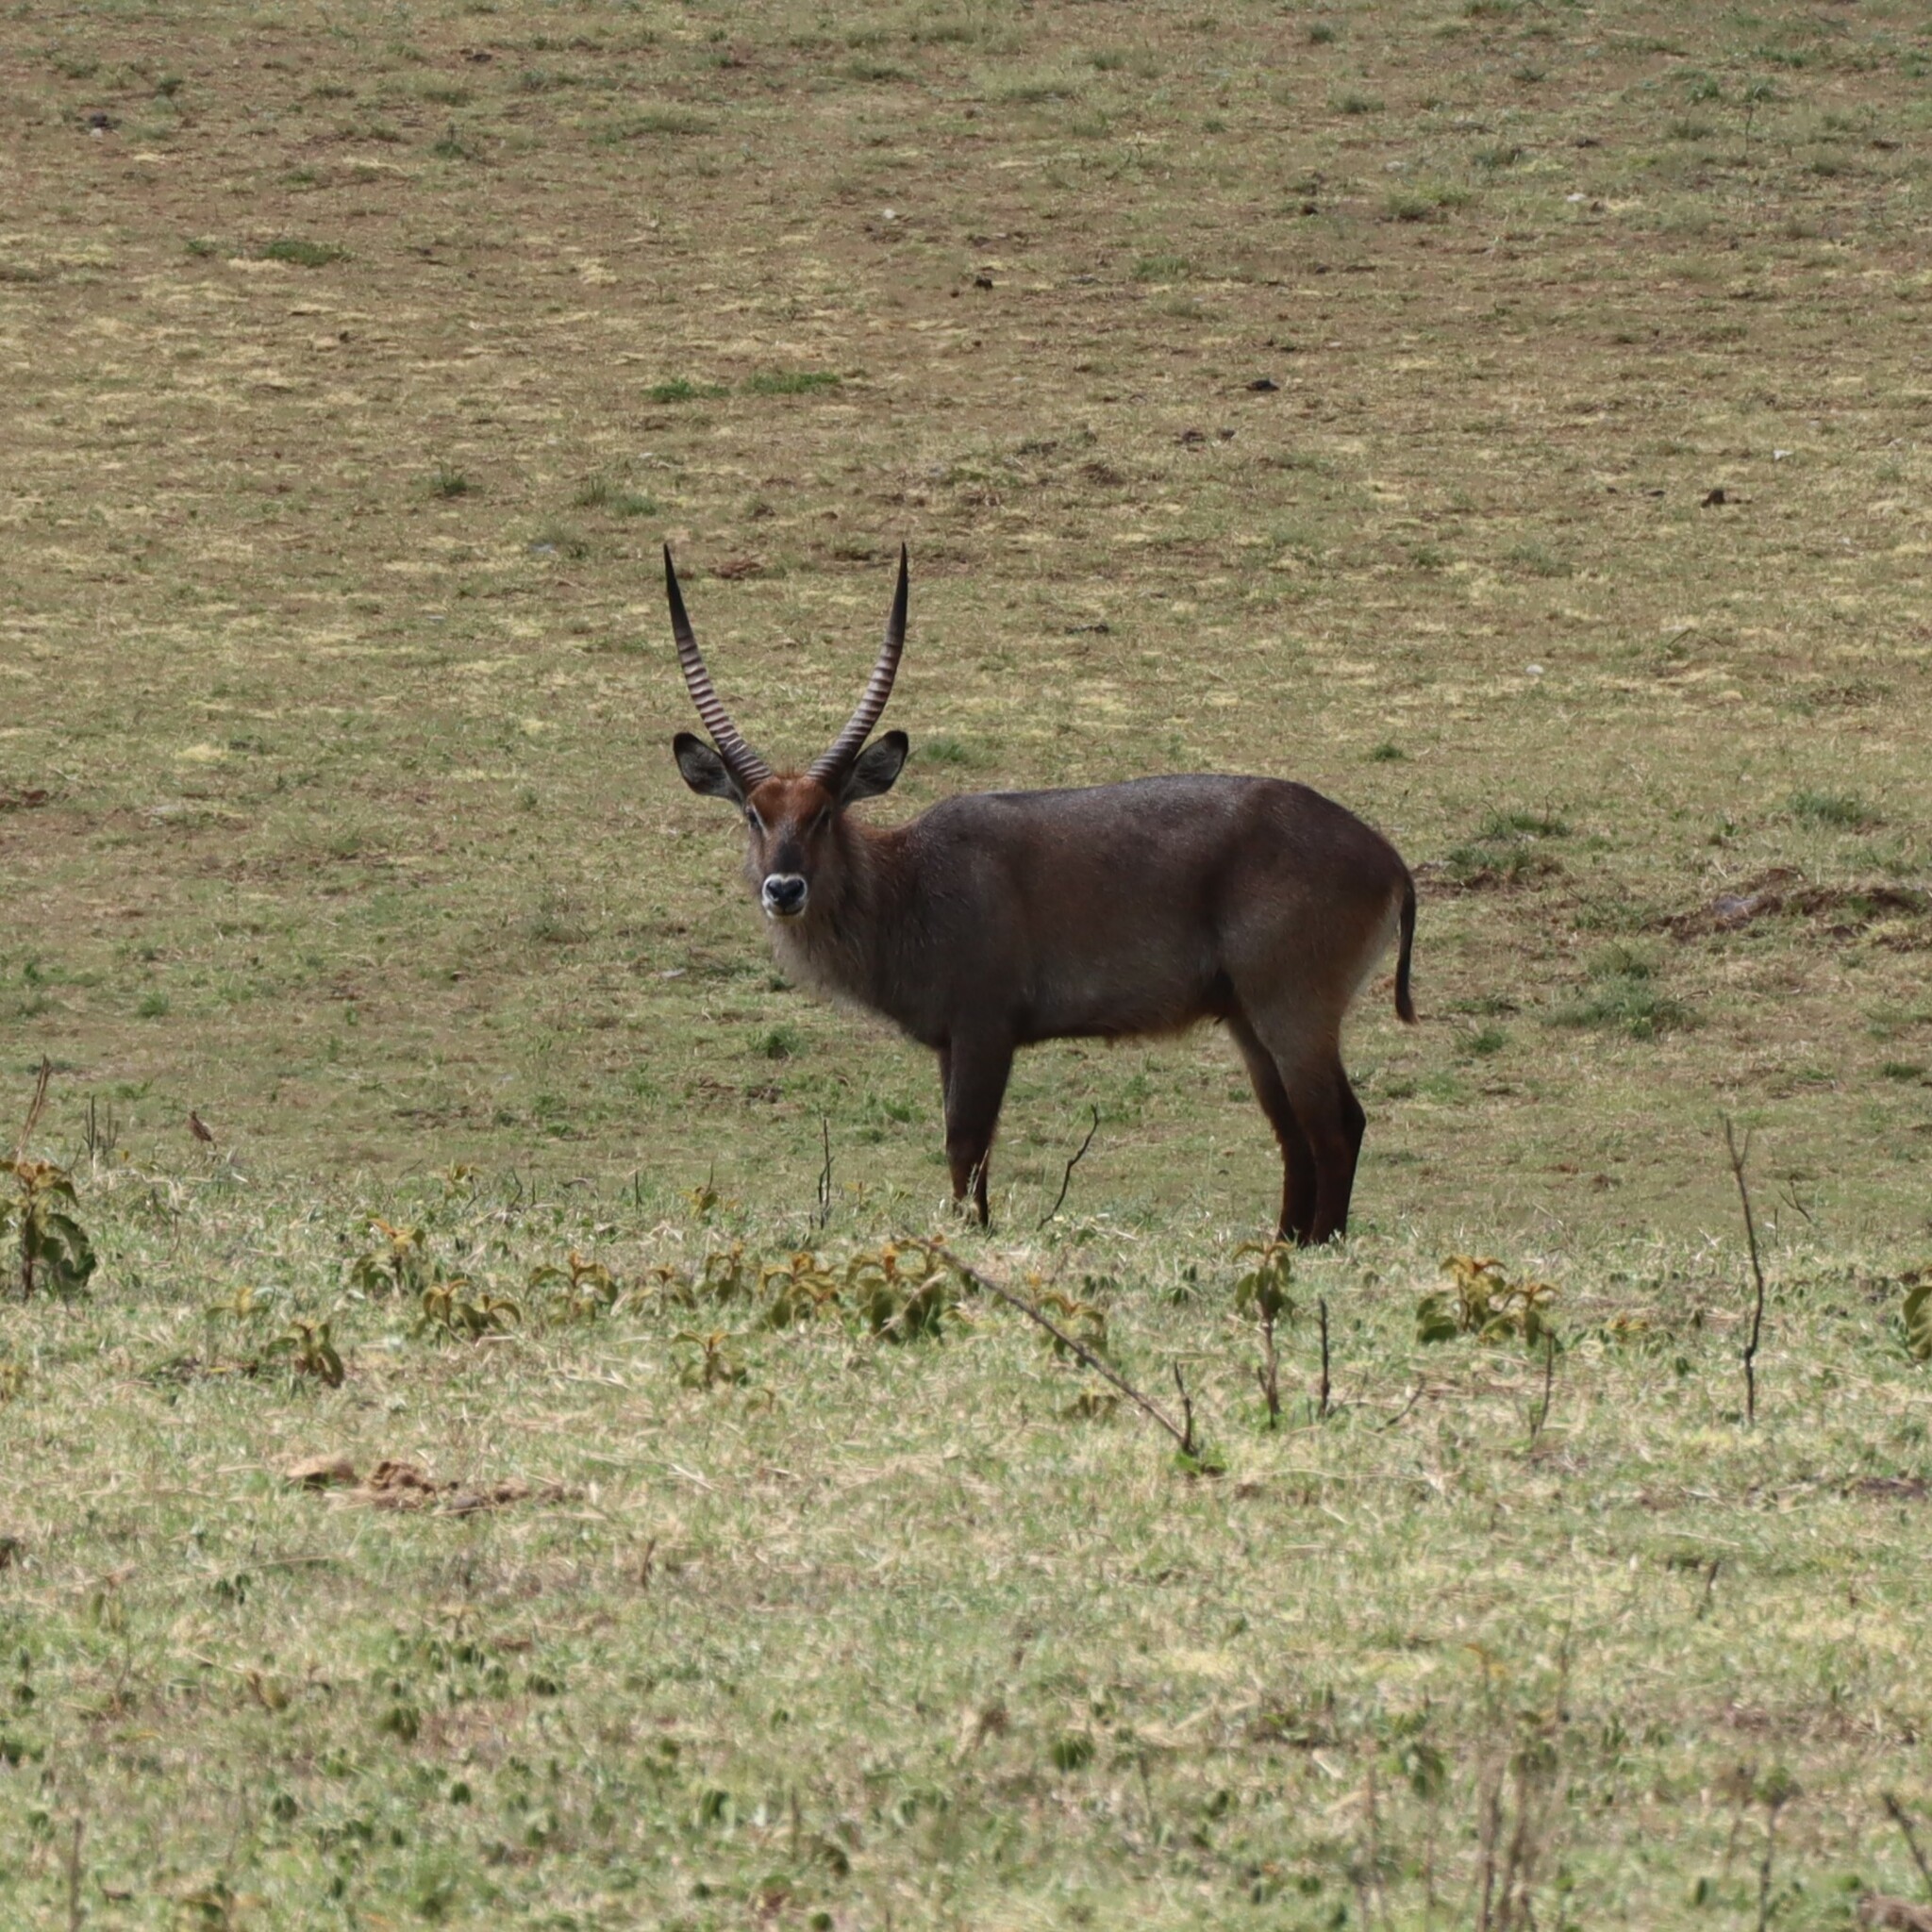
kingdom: Animalia
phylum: Chordata
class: Mammalia
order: Artiodactyla
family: Bovidae
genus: Kobus
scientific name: Kobus ellipsiprymnus
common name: Waterbuck
